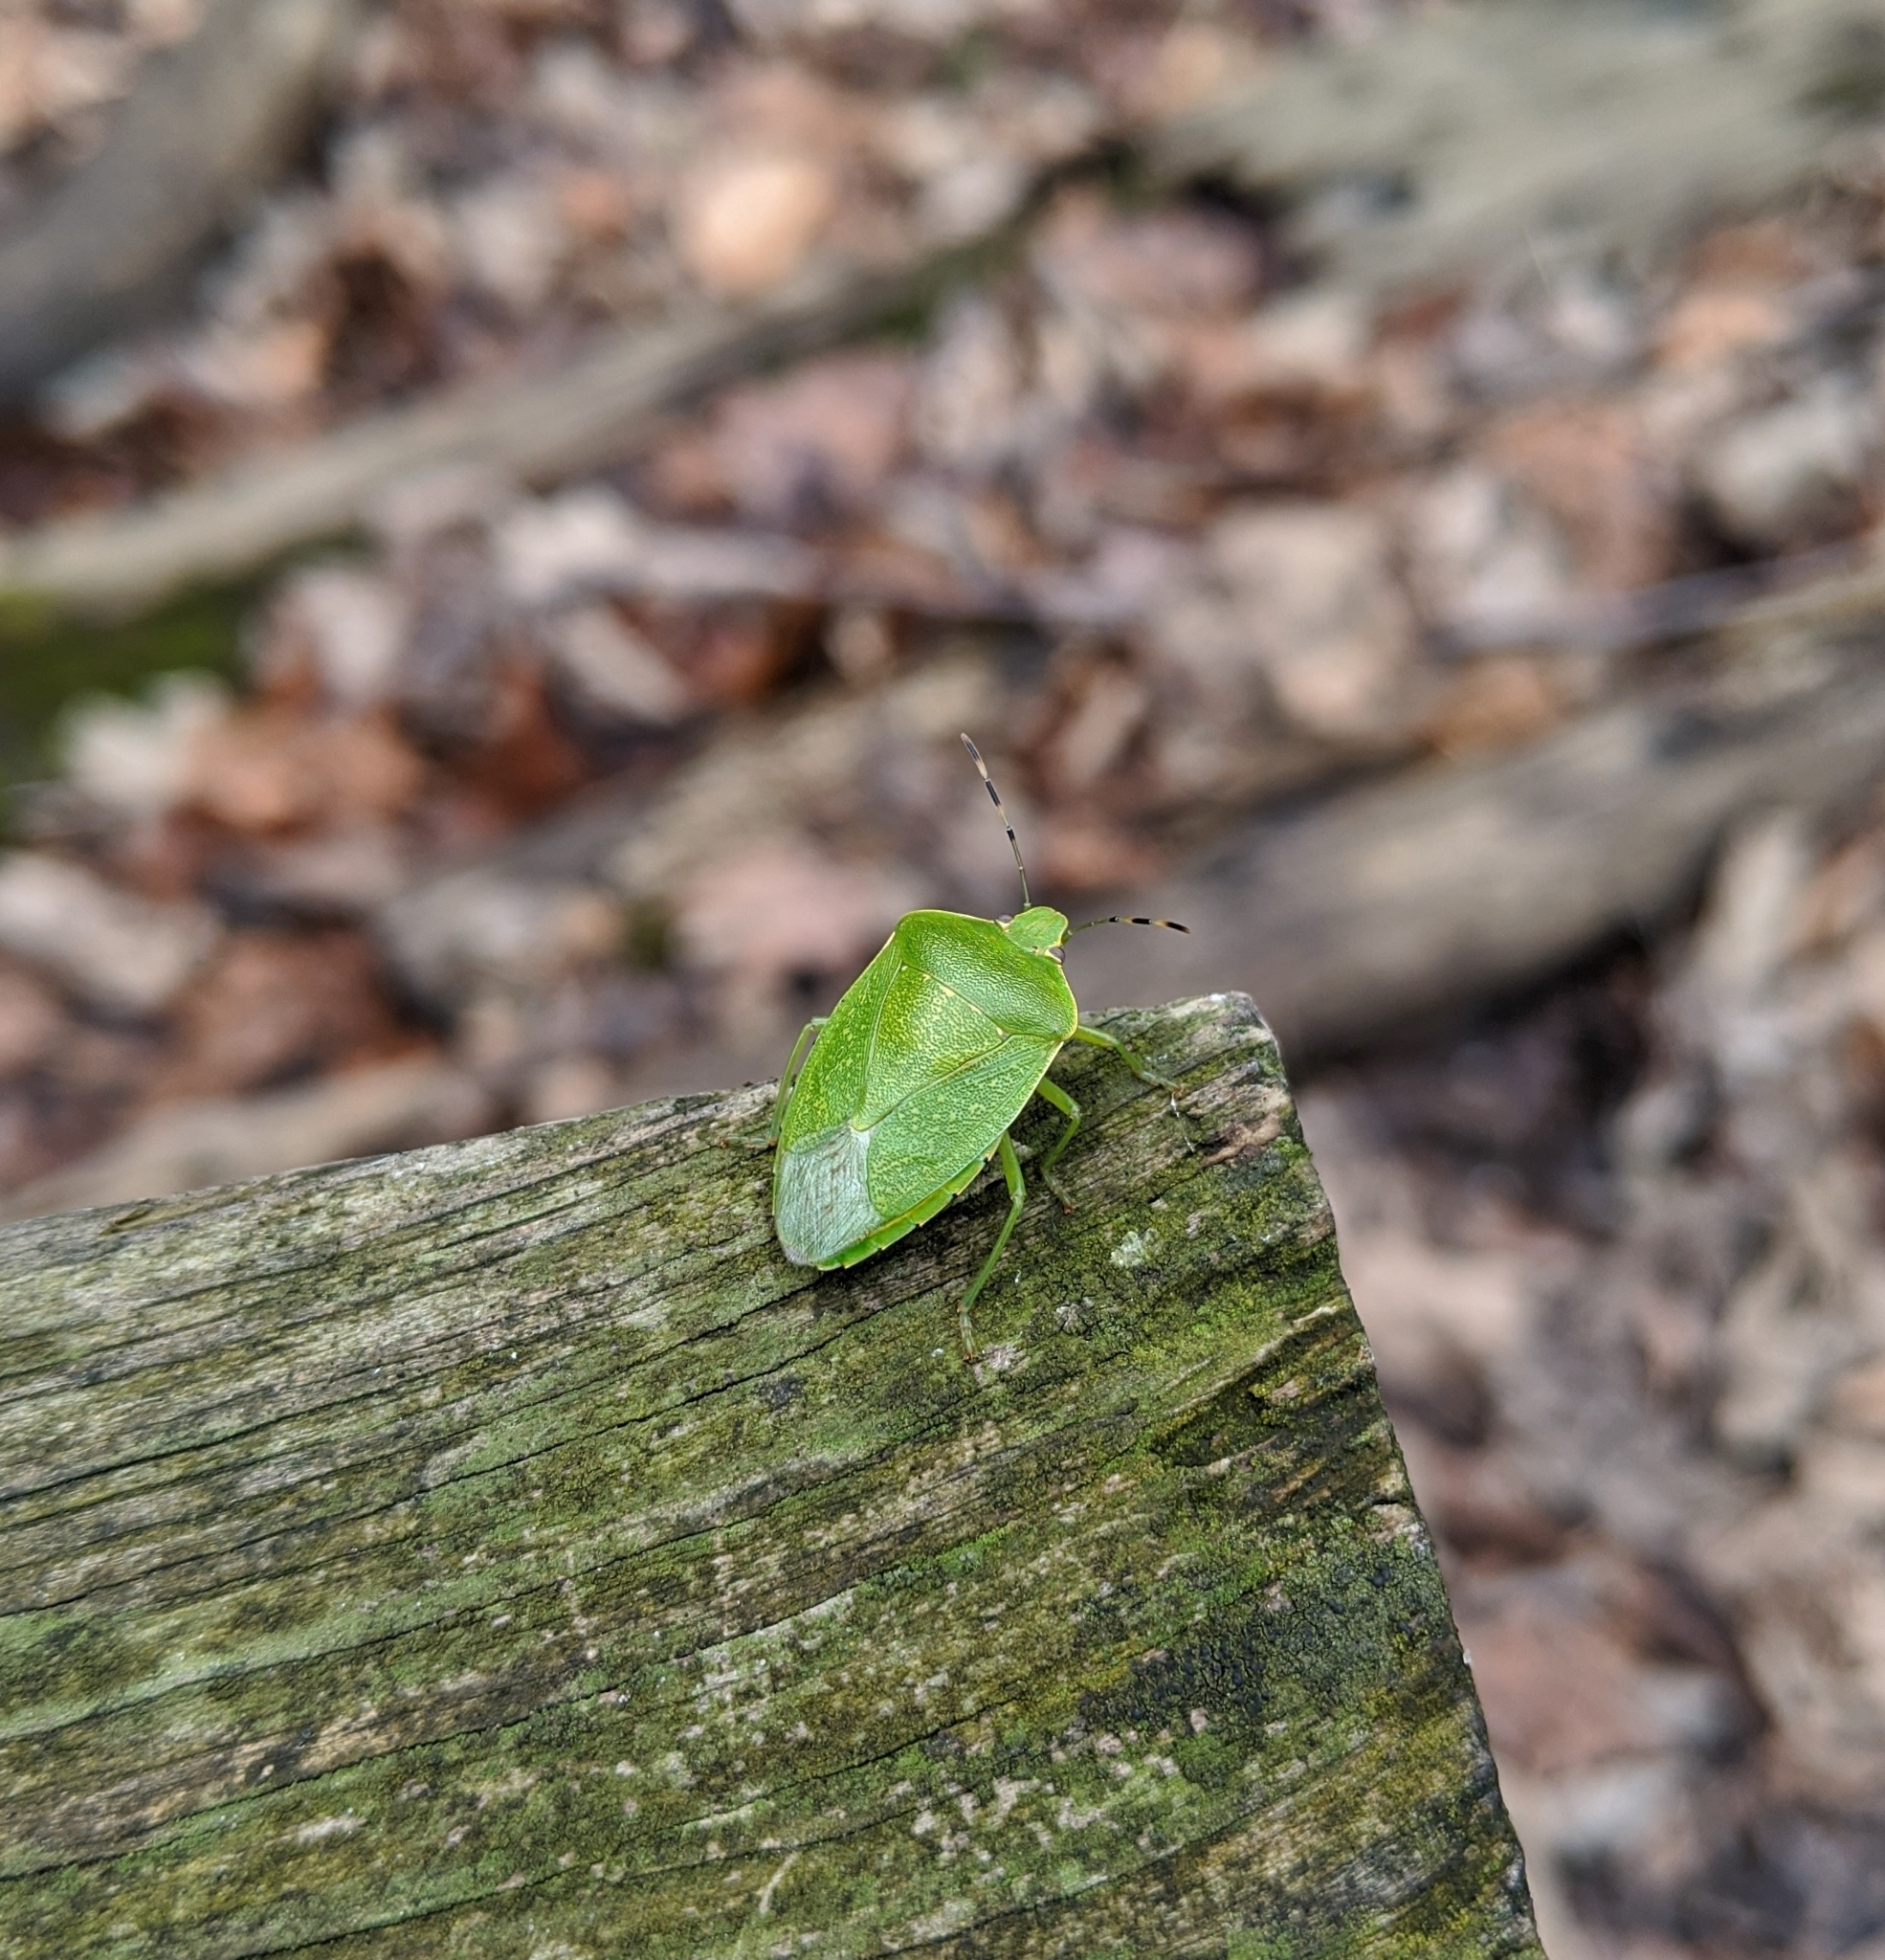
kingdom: Animalia
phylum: Arthropoda
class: Insecta
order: Hemiptera
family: Pentatomidae
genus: Chinavia
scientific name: Chinavia hilaris
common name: Green stink bug
